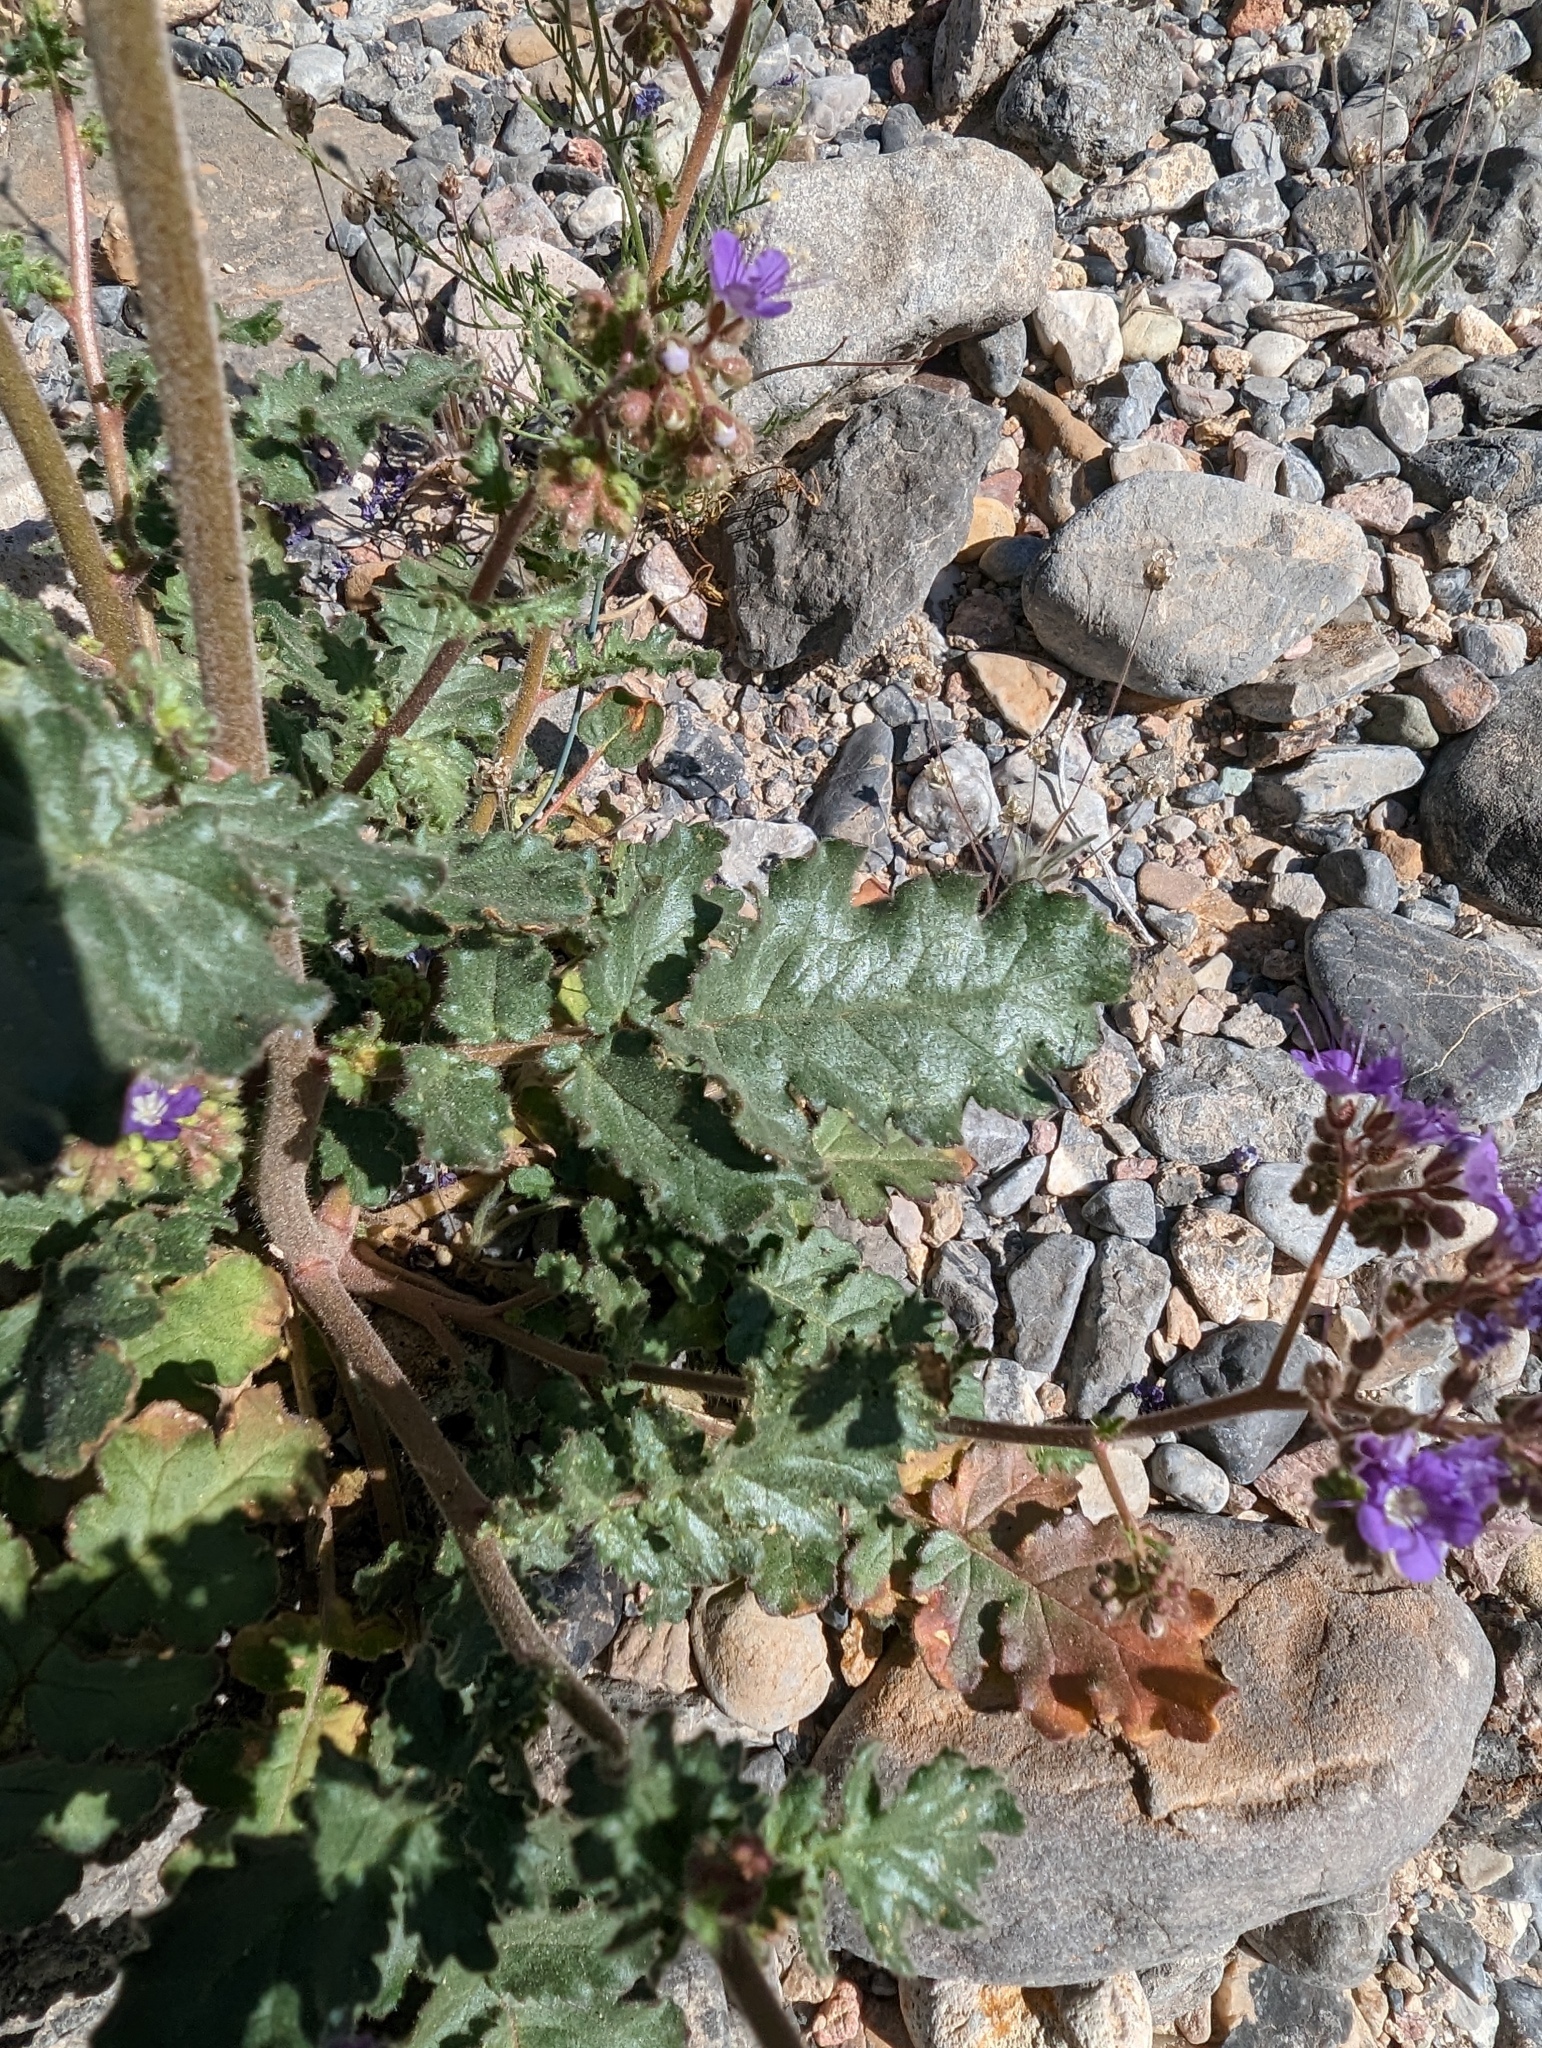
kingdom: Plantae
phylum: Tracheophyta
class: Magnoliopsida
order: Boraginales
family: Hydrophyllaceae
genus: Phacelia
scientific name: Phacelia crenulata
